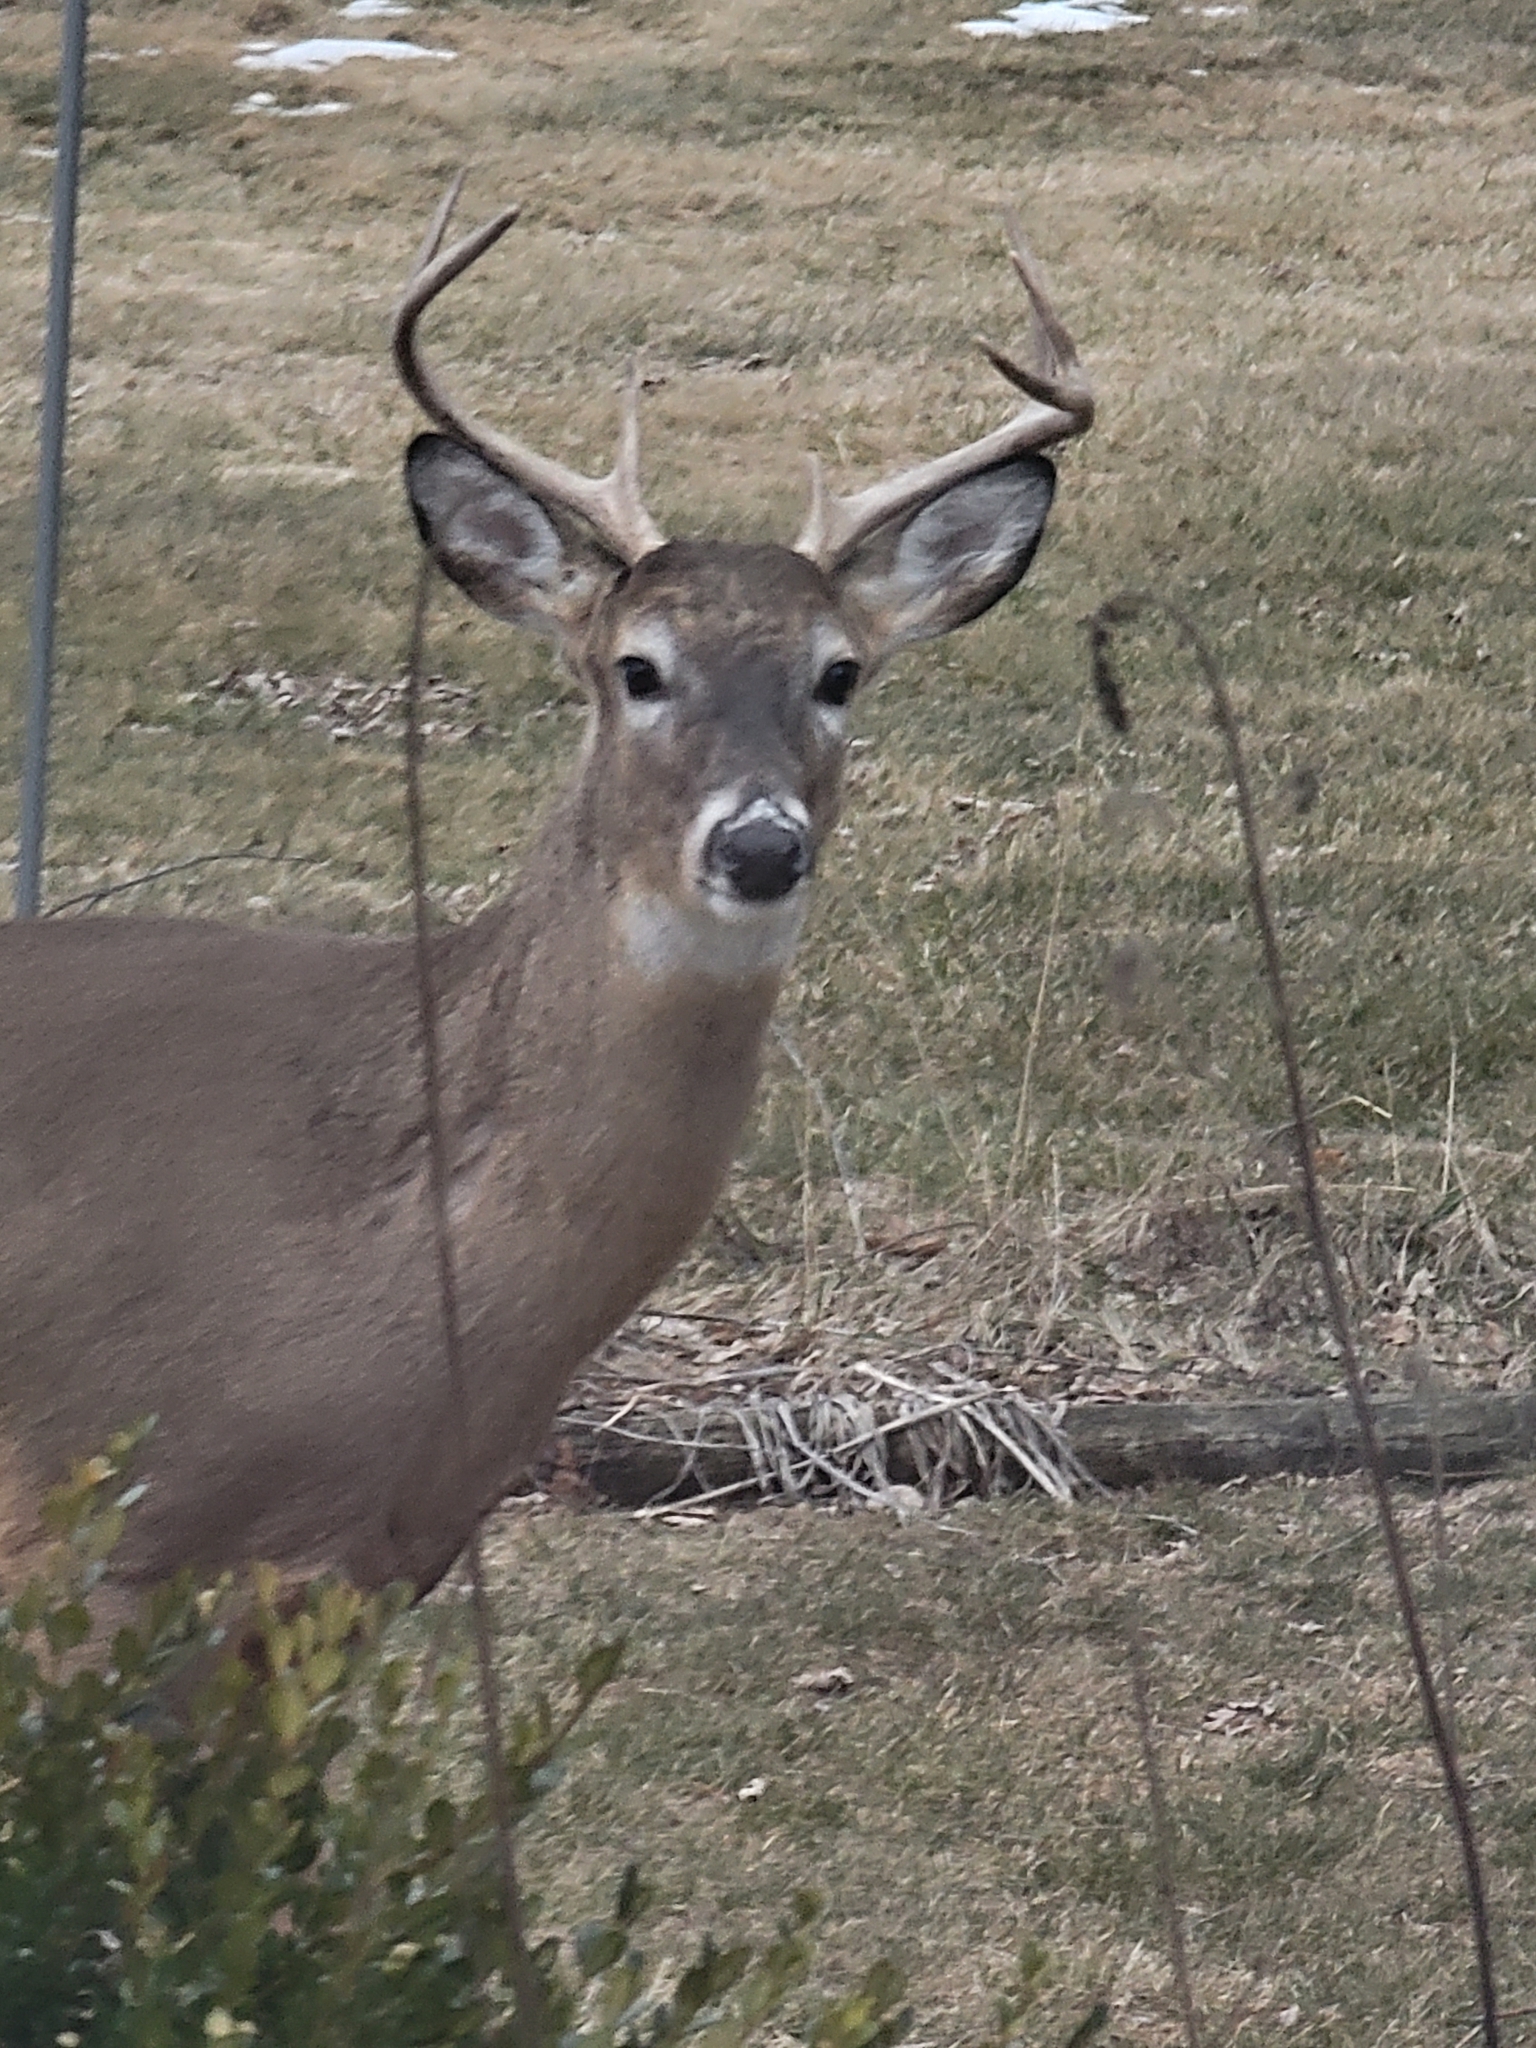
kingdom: Animalia
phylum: Chordata
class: Mammalia
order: Artiodactyla
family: Cervidae
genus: Odocoileus
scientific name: Odocoileus virginianus
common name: White-tailed deer
